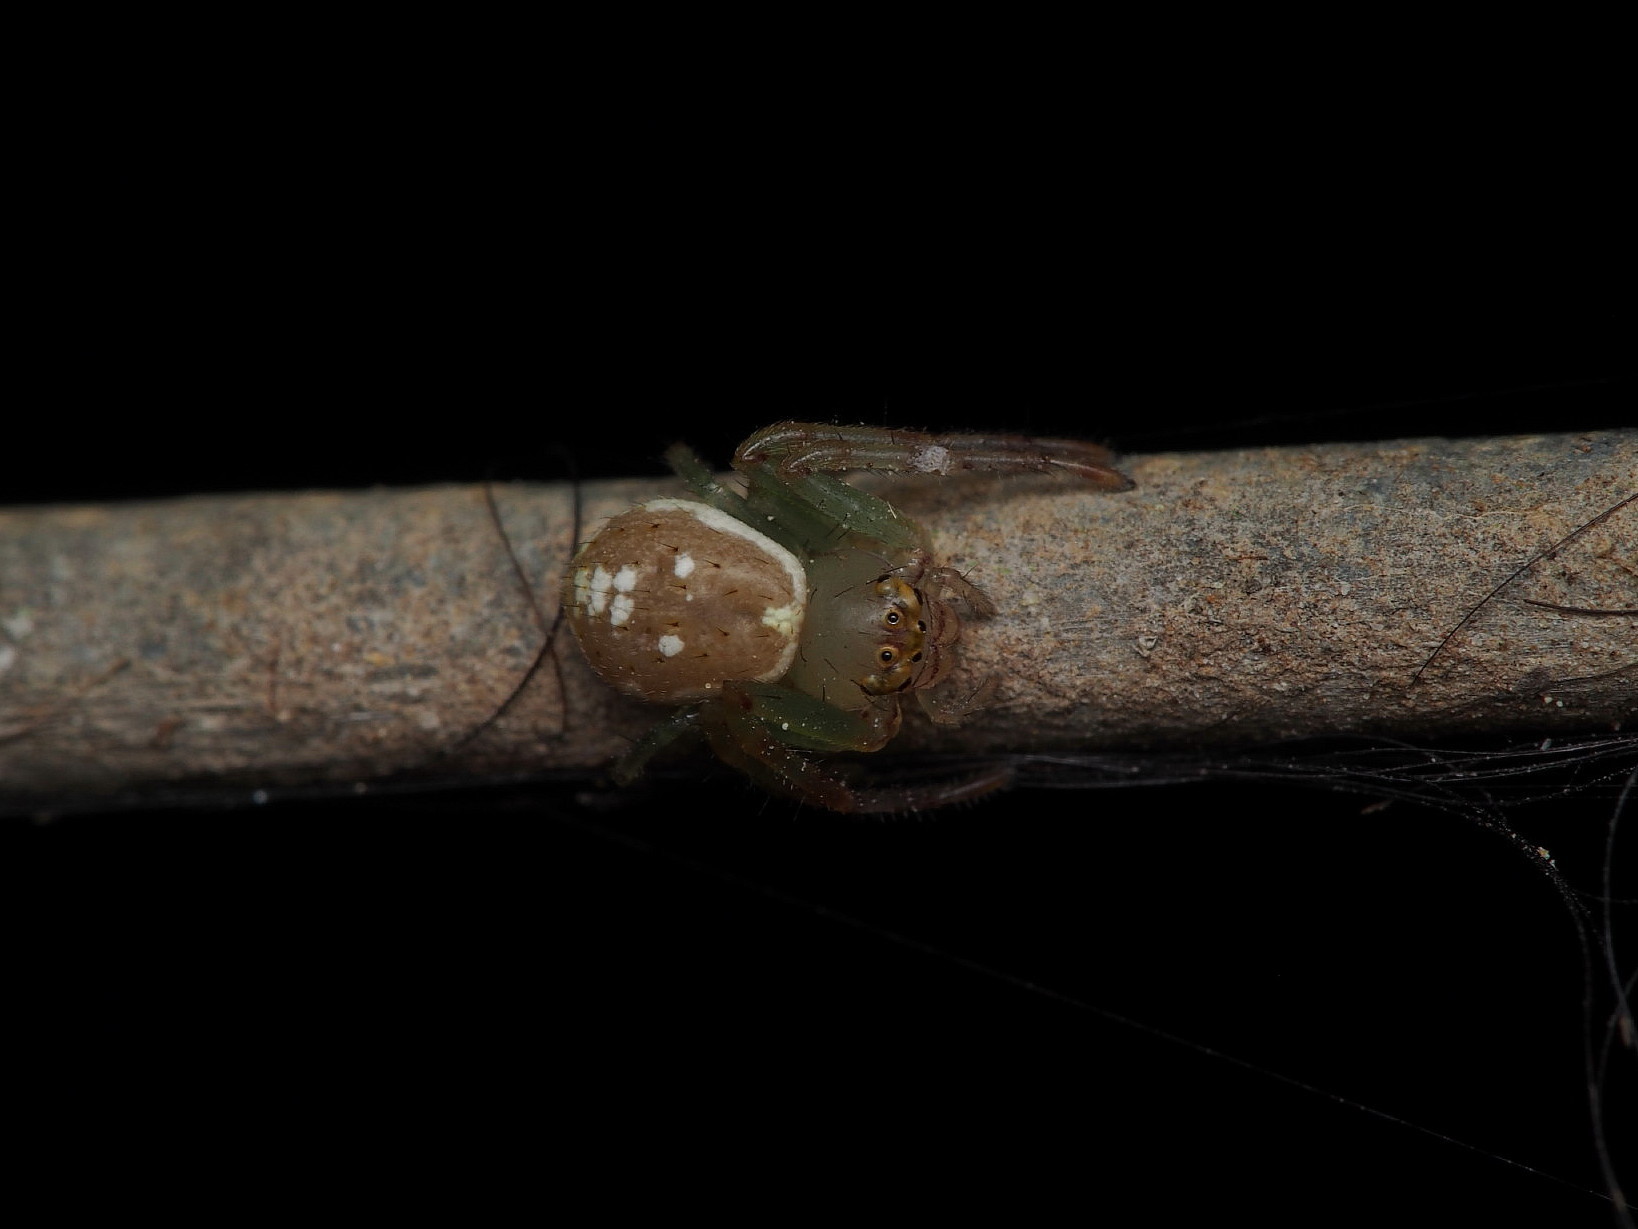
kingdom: Animalia
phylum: Arthropoda
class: Arachnida
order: Araneae
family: Thomisidae
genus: Diaea
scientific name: Diaea ambara
